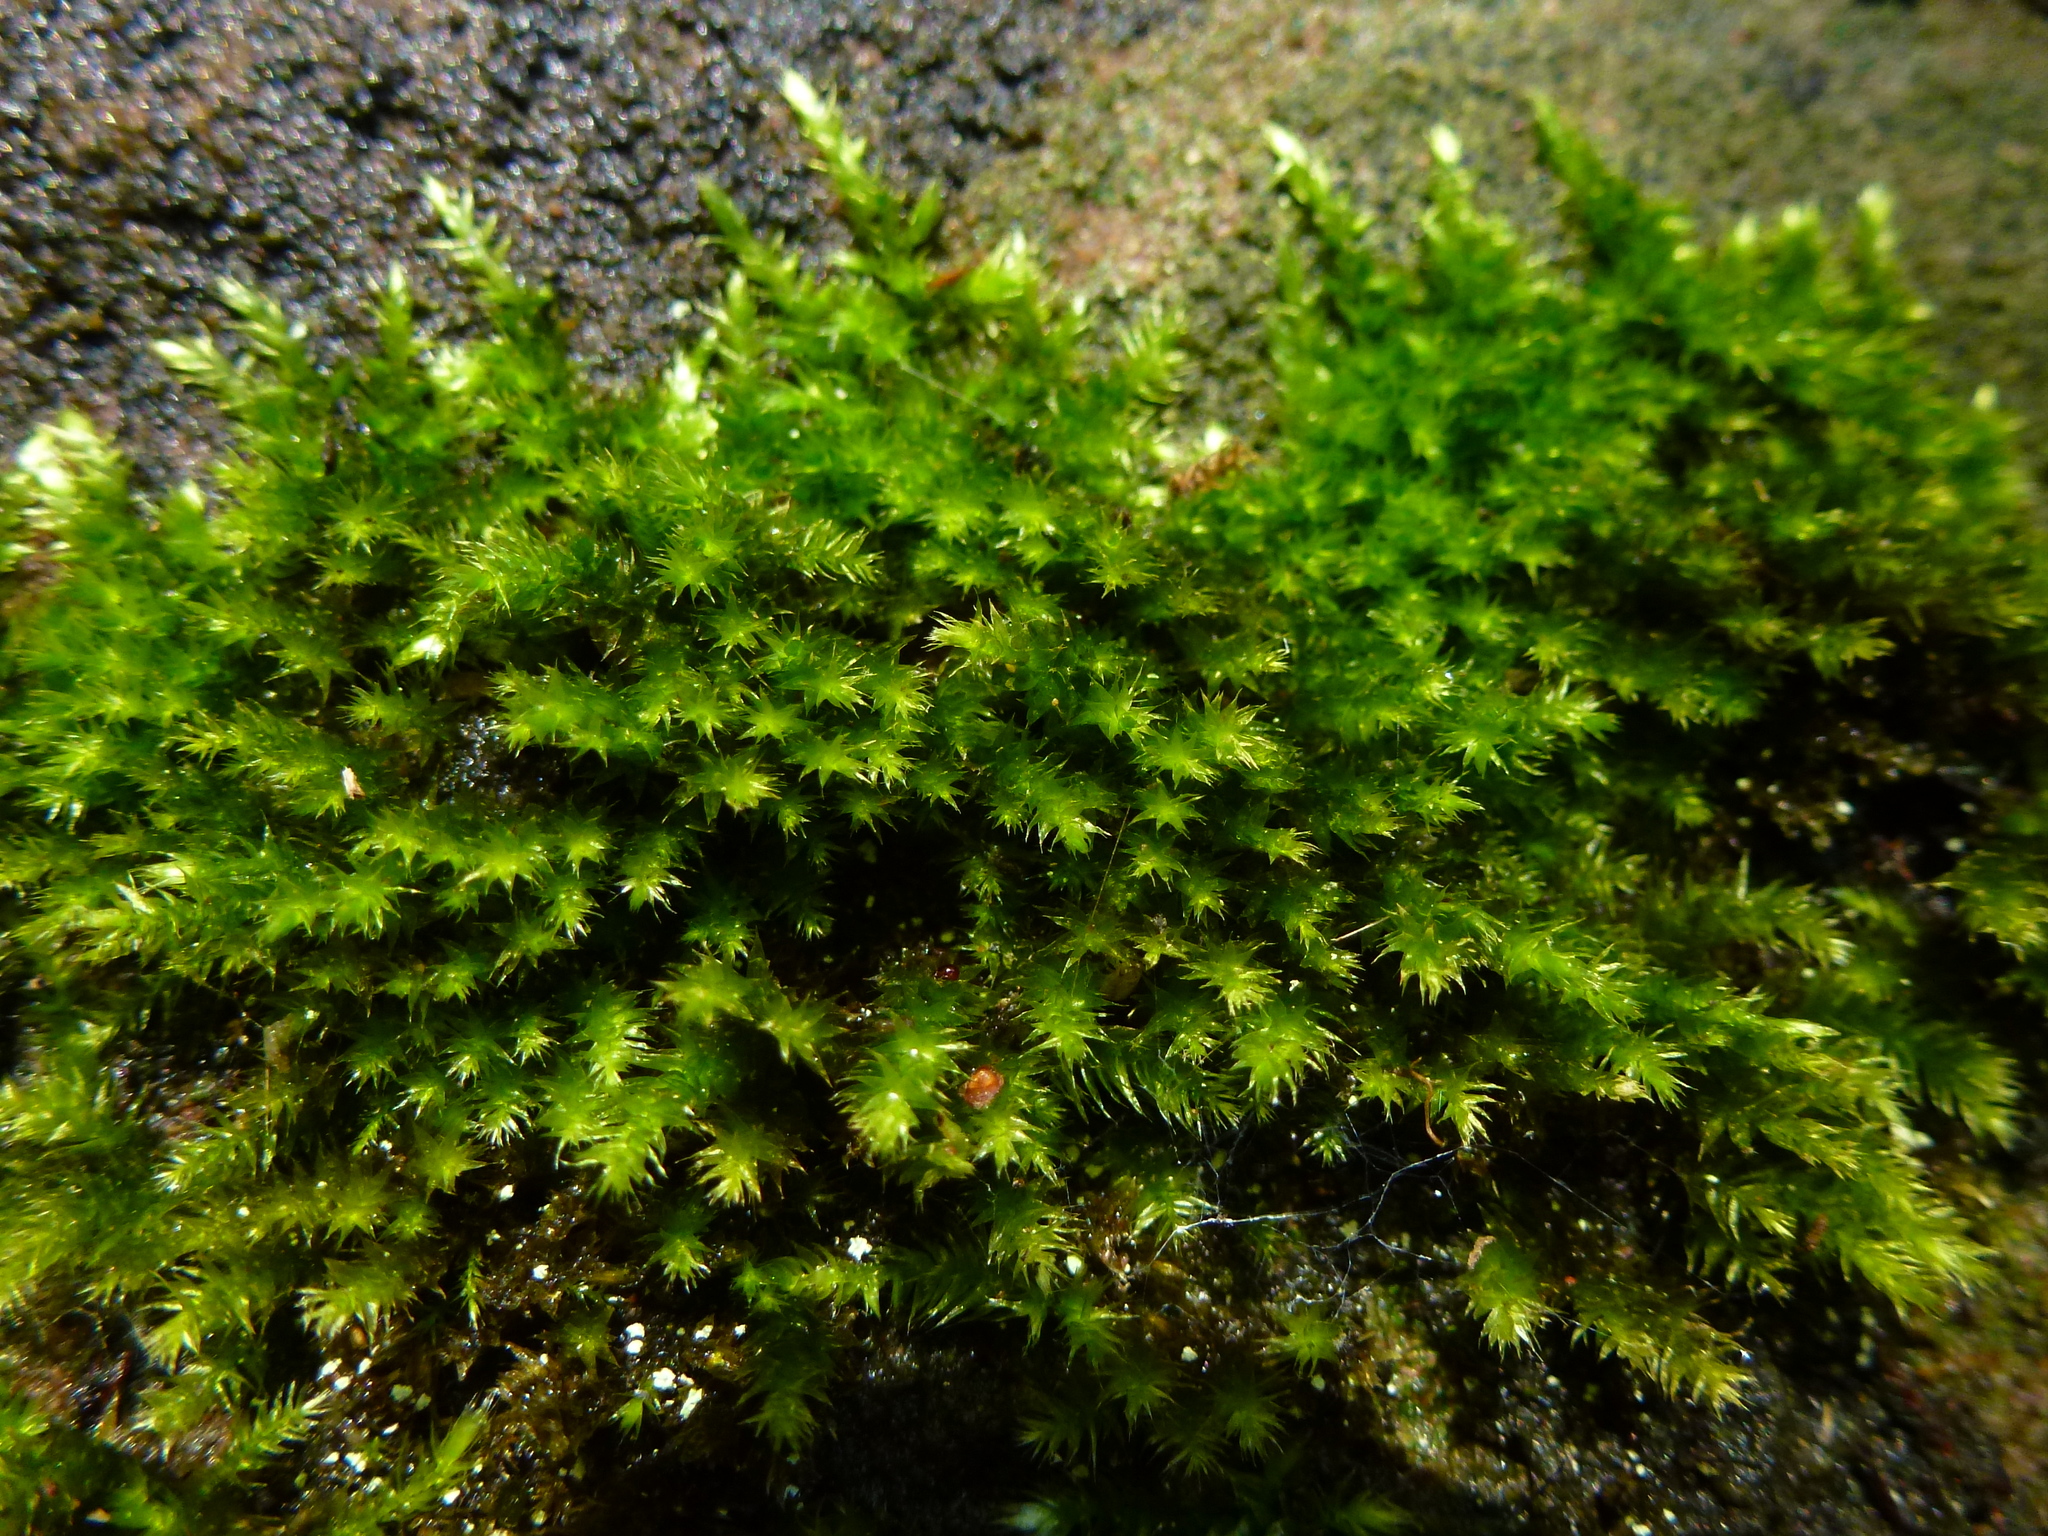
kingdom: Plantae
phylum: Bryophyta
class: Bryopsida
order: Hypnales
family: Brachytheciaceae
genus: Homalothecium
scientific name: Homalothecium sericeum
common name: Silky wall feather-moss
